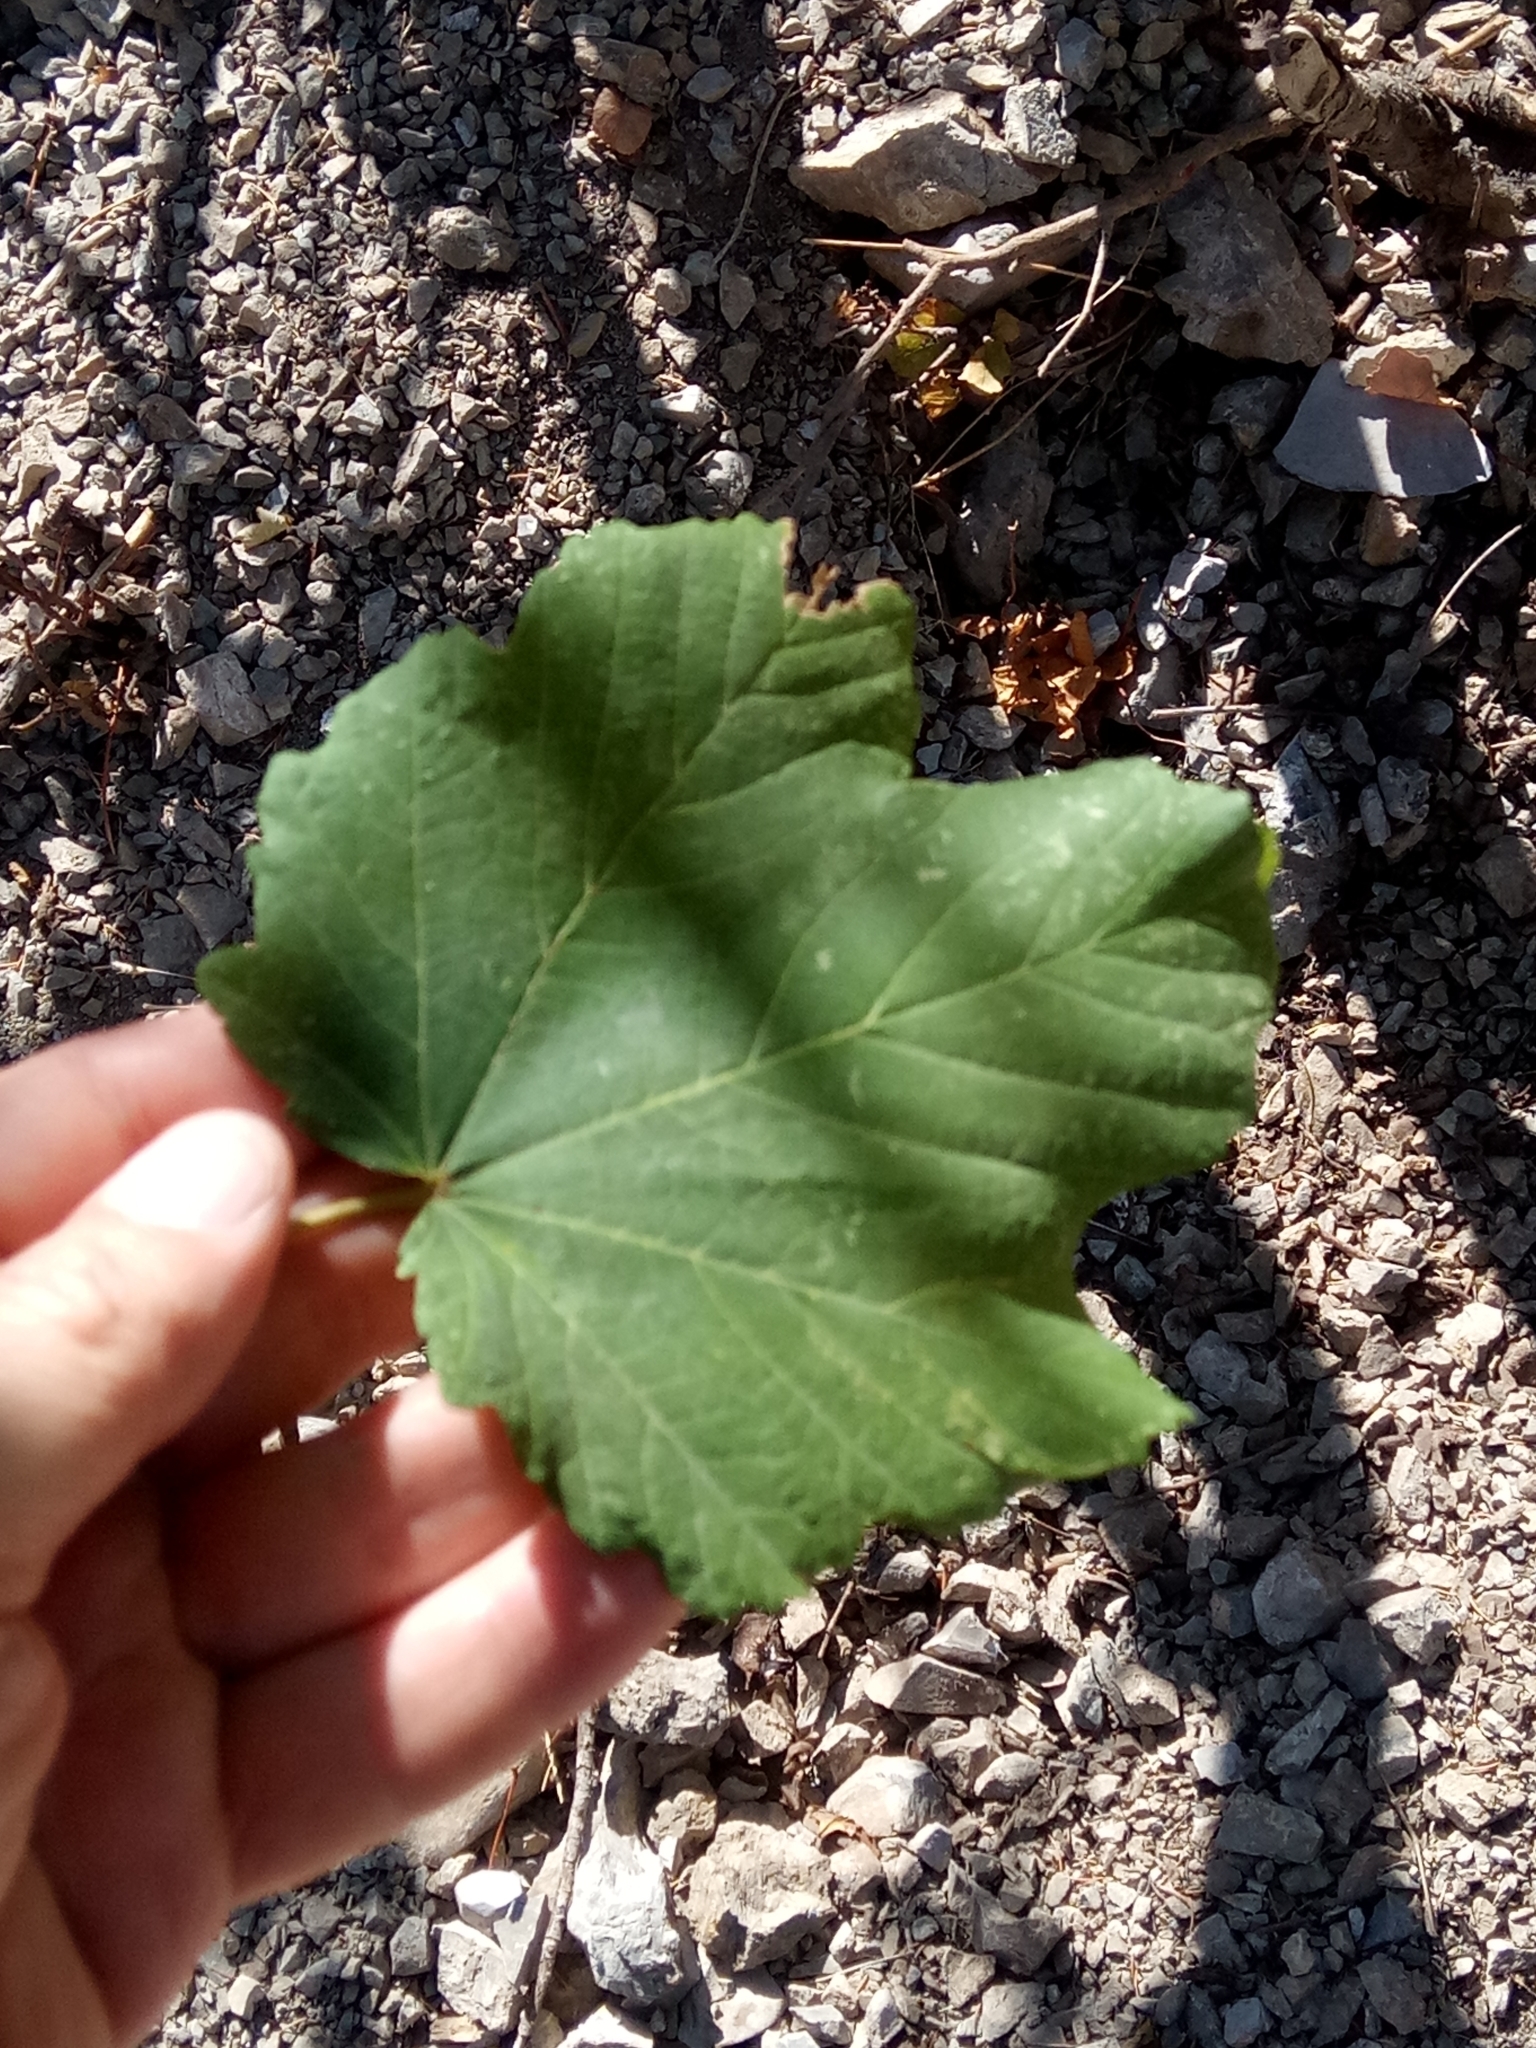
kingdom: Plantae
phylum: Tracheophyta
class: Magnoliopsida
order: Sapindales
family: Sapindaceae
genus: Acer
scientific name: Acer opalus
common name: Italian maple
